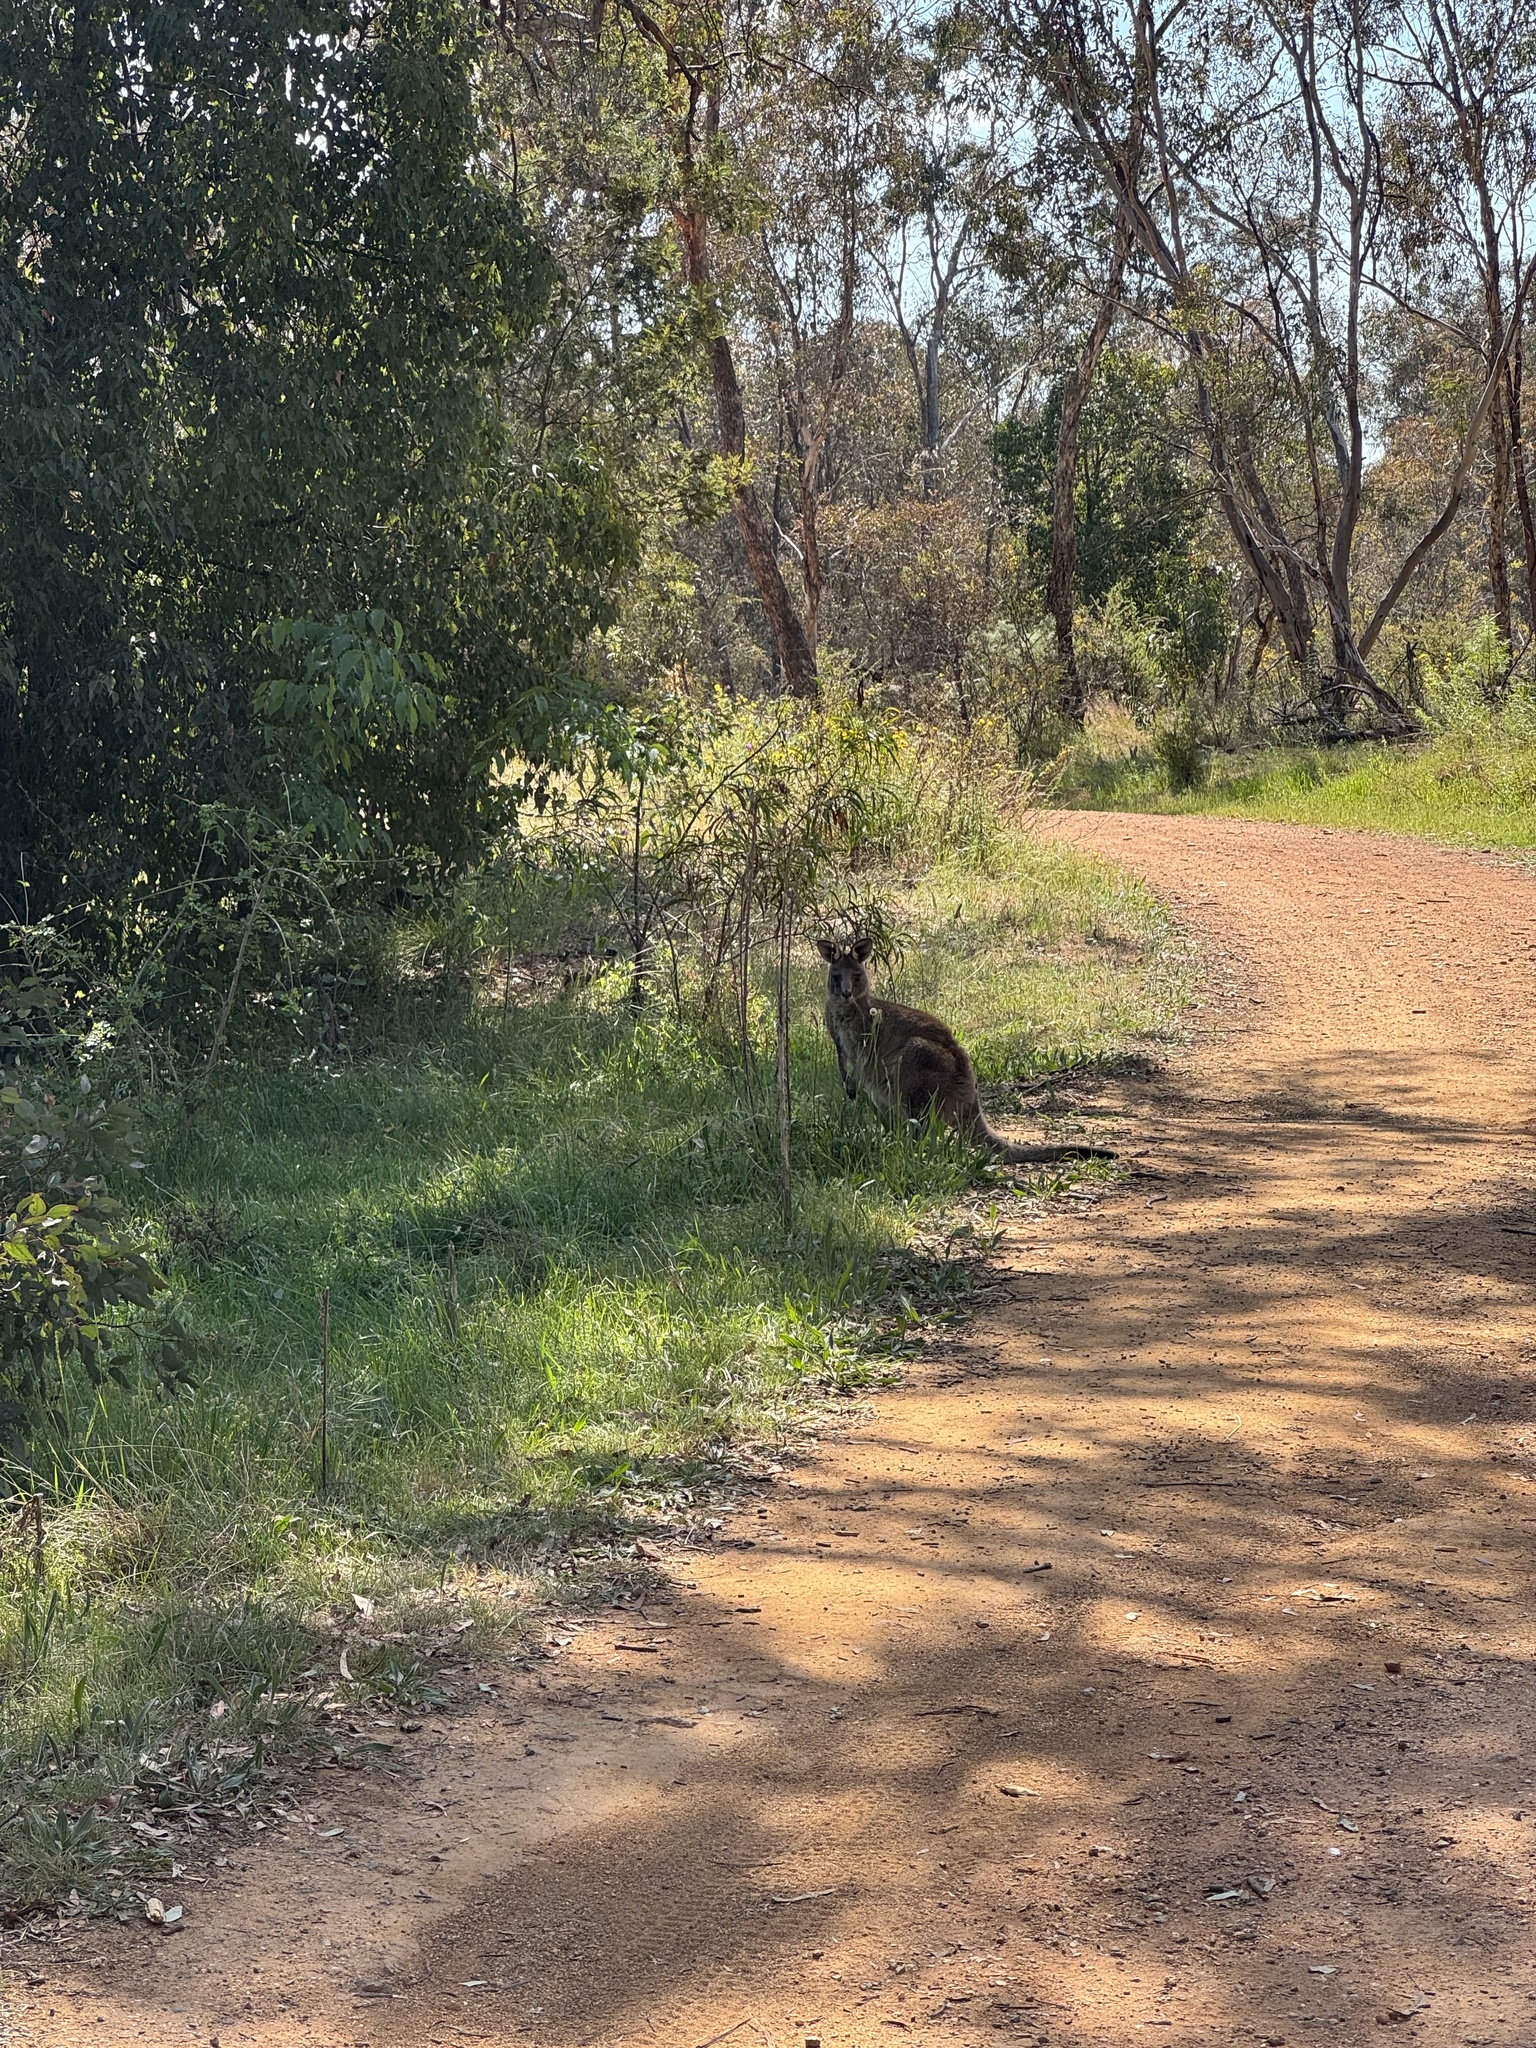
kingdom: Animalia
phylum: Chordata
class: Mammalia
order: Diprotodontia
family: Macropodidae
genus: Macropus
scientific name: Macropus giganteus
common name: Eastern grey kangaroo
